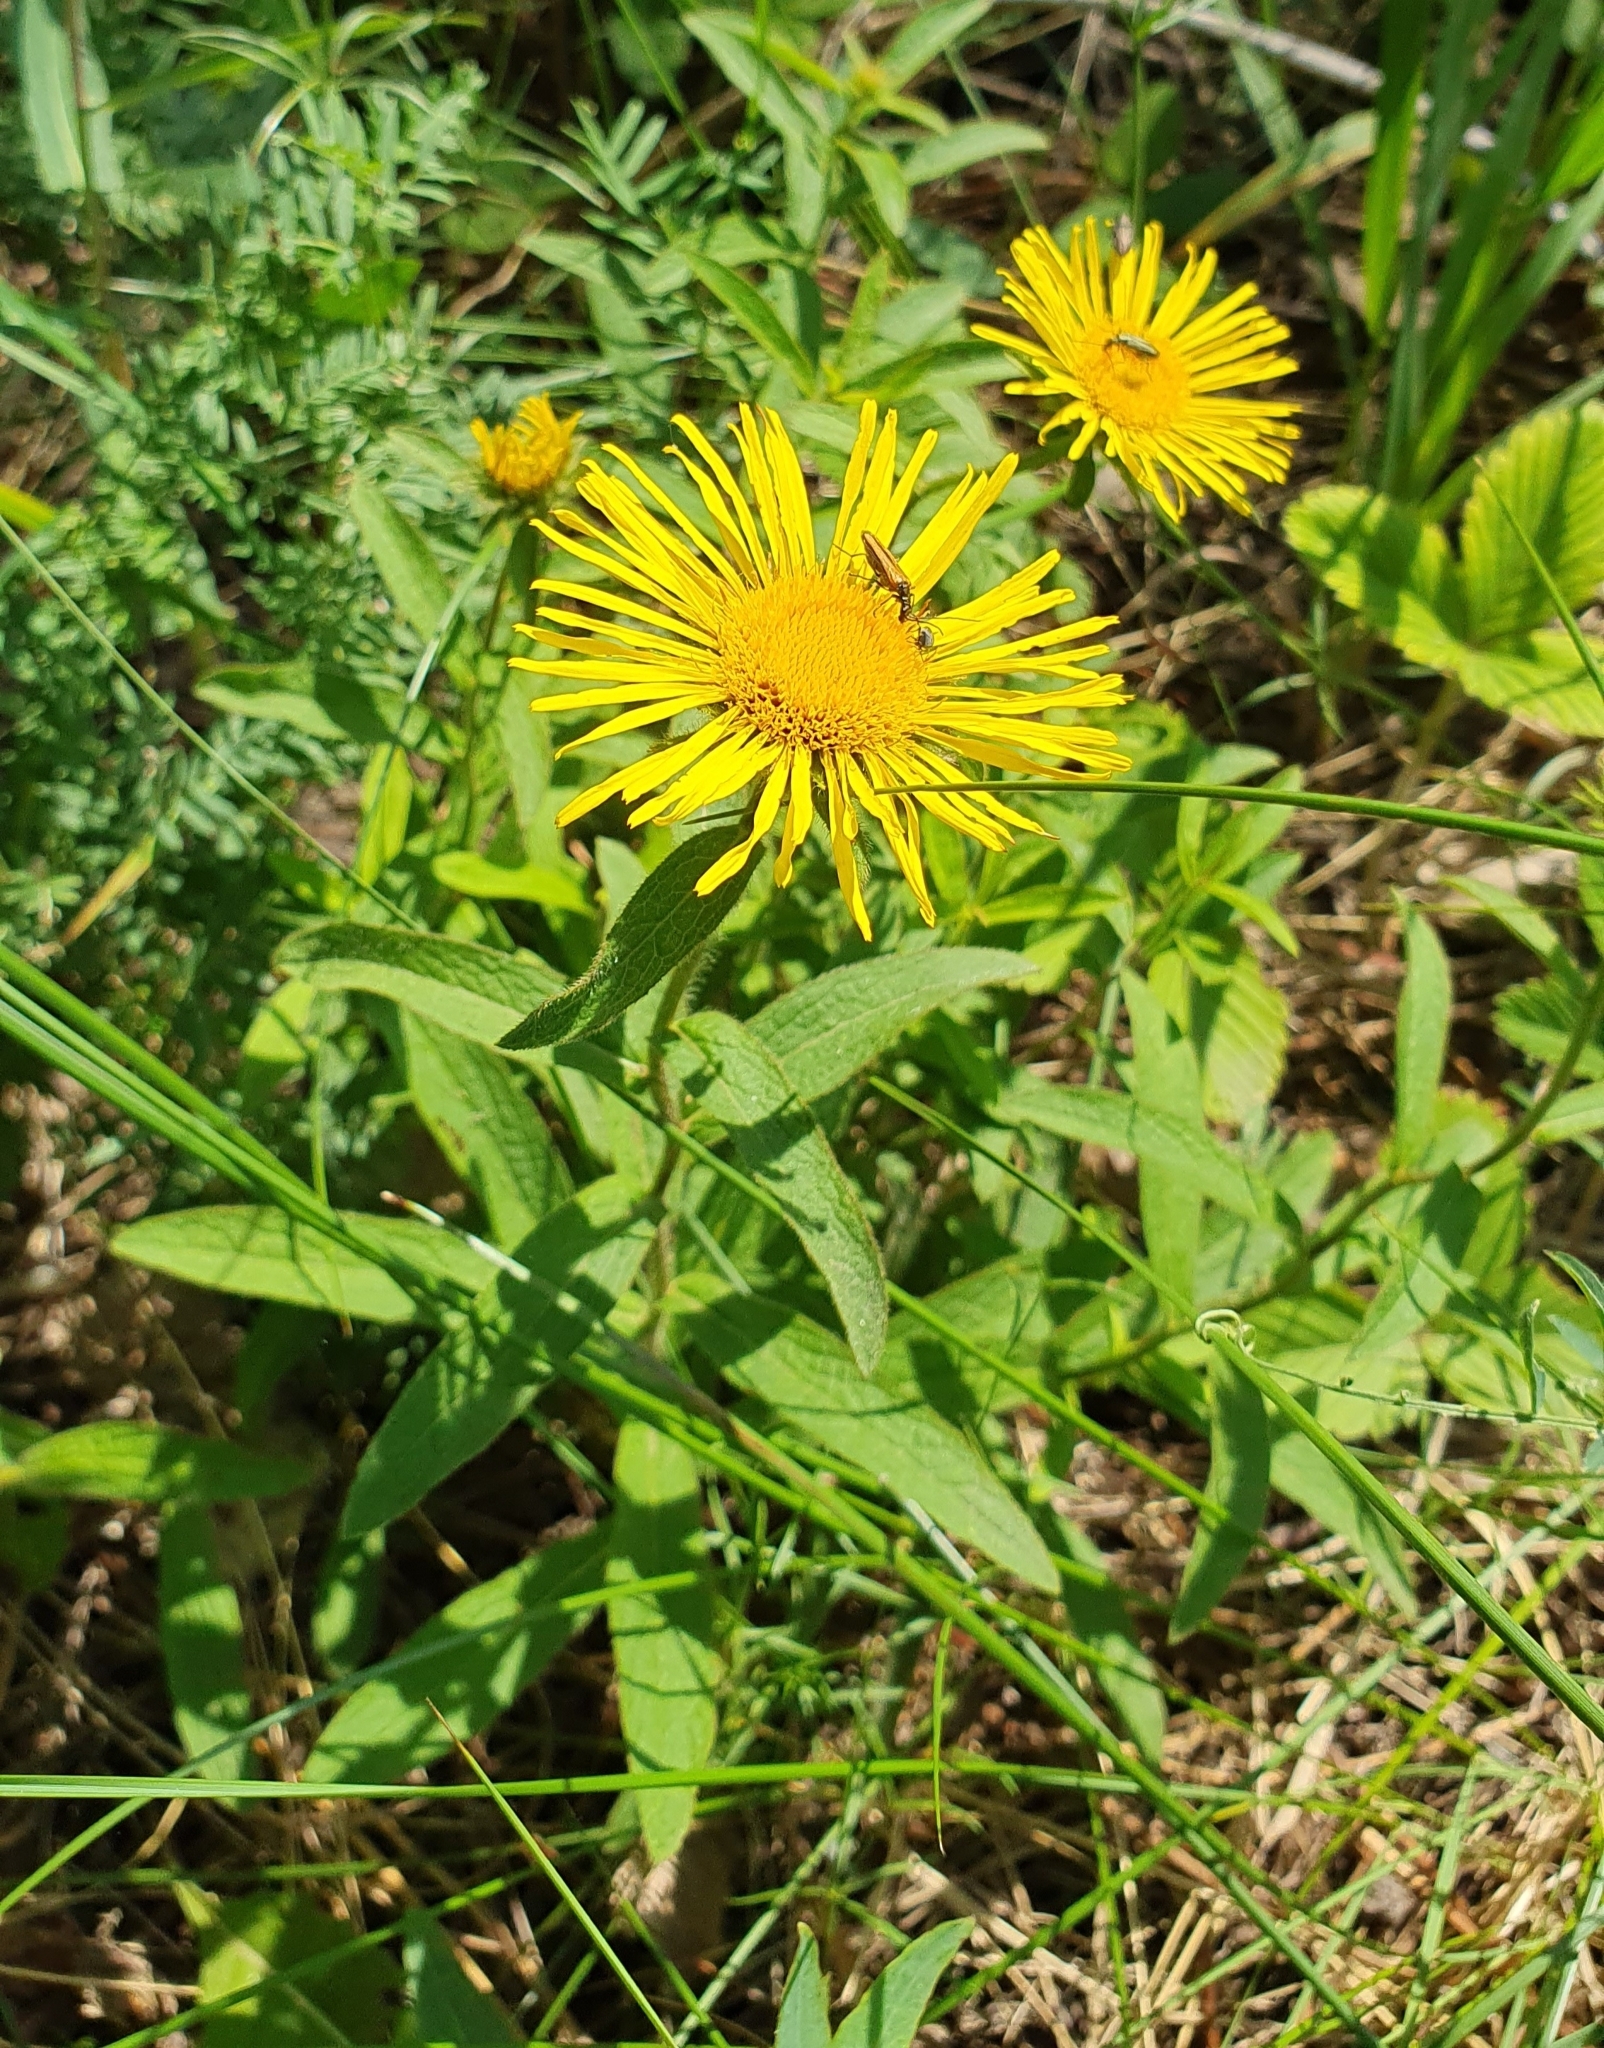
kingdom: Plantae
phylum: Tracheophyta
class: Magnoliopsida
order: Asterales
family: Asteraceae
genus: Pentanema
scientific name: Pentanema hirtum
